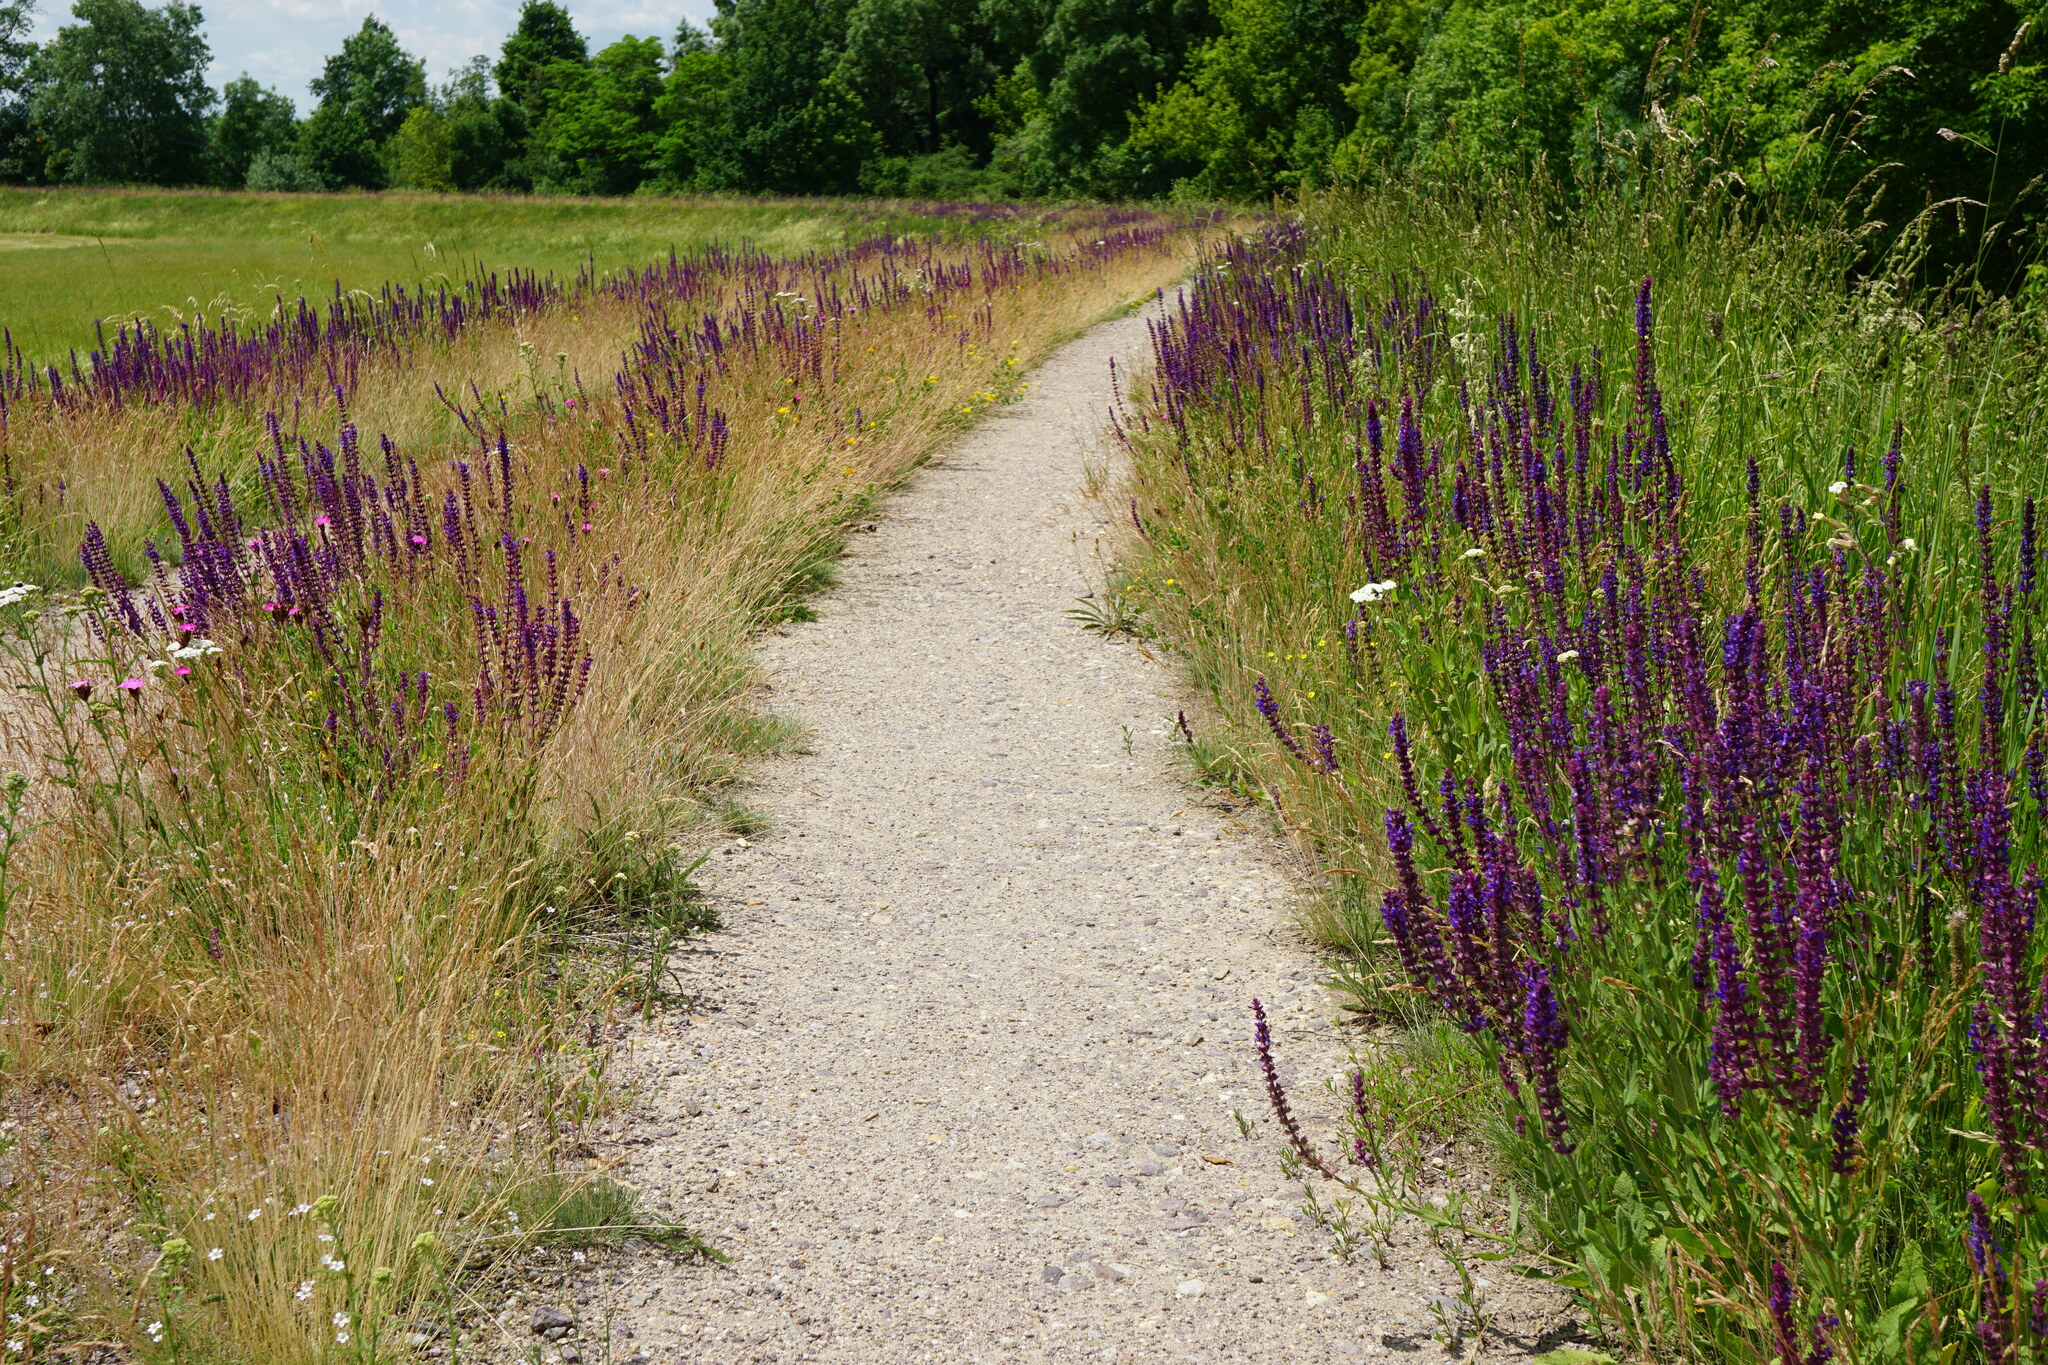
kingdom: Plantae
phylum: Tracheophyta
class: Magnoliopsida
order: Lamiales
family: Lamiaceae
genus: Salvia
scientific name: Salvia nemorosa
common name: Balkan clary
